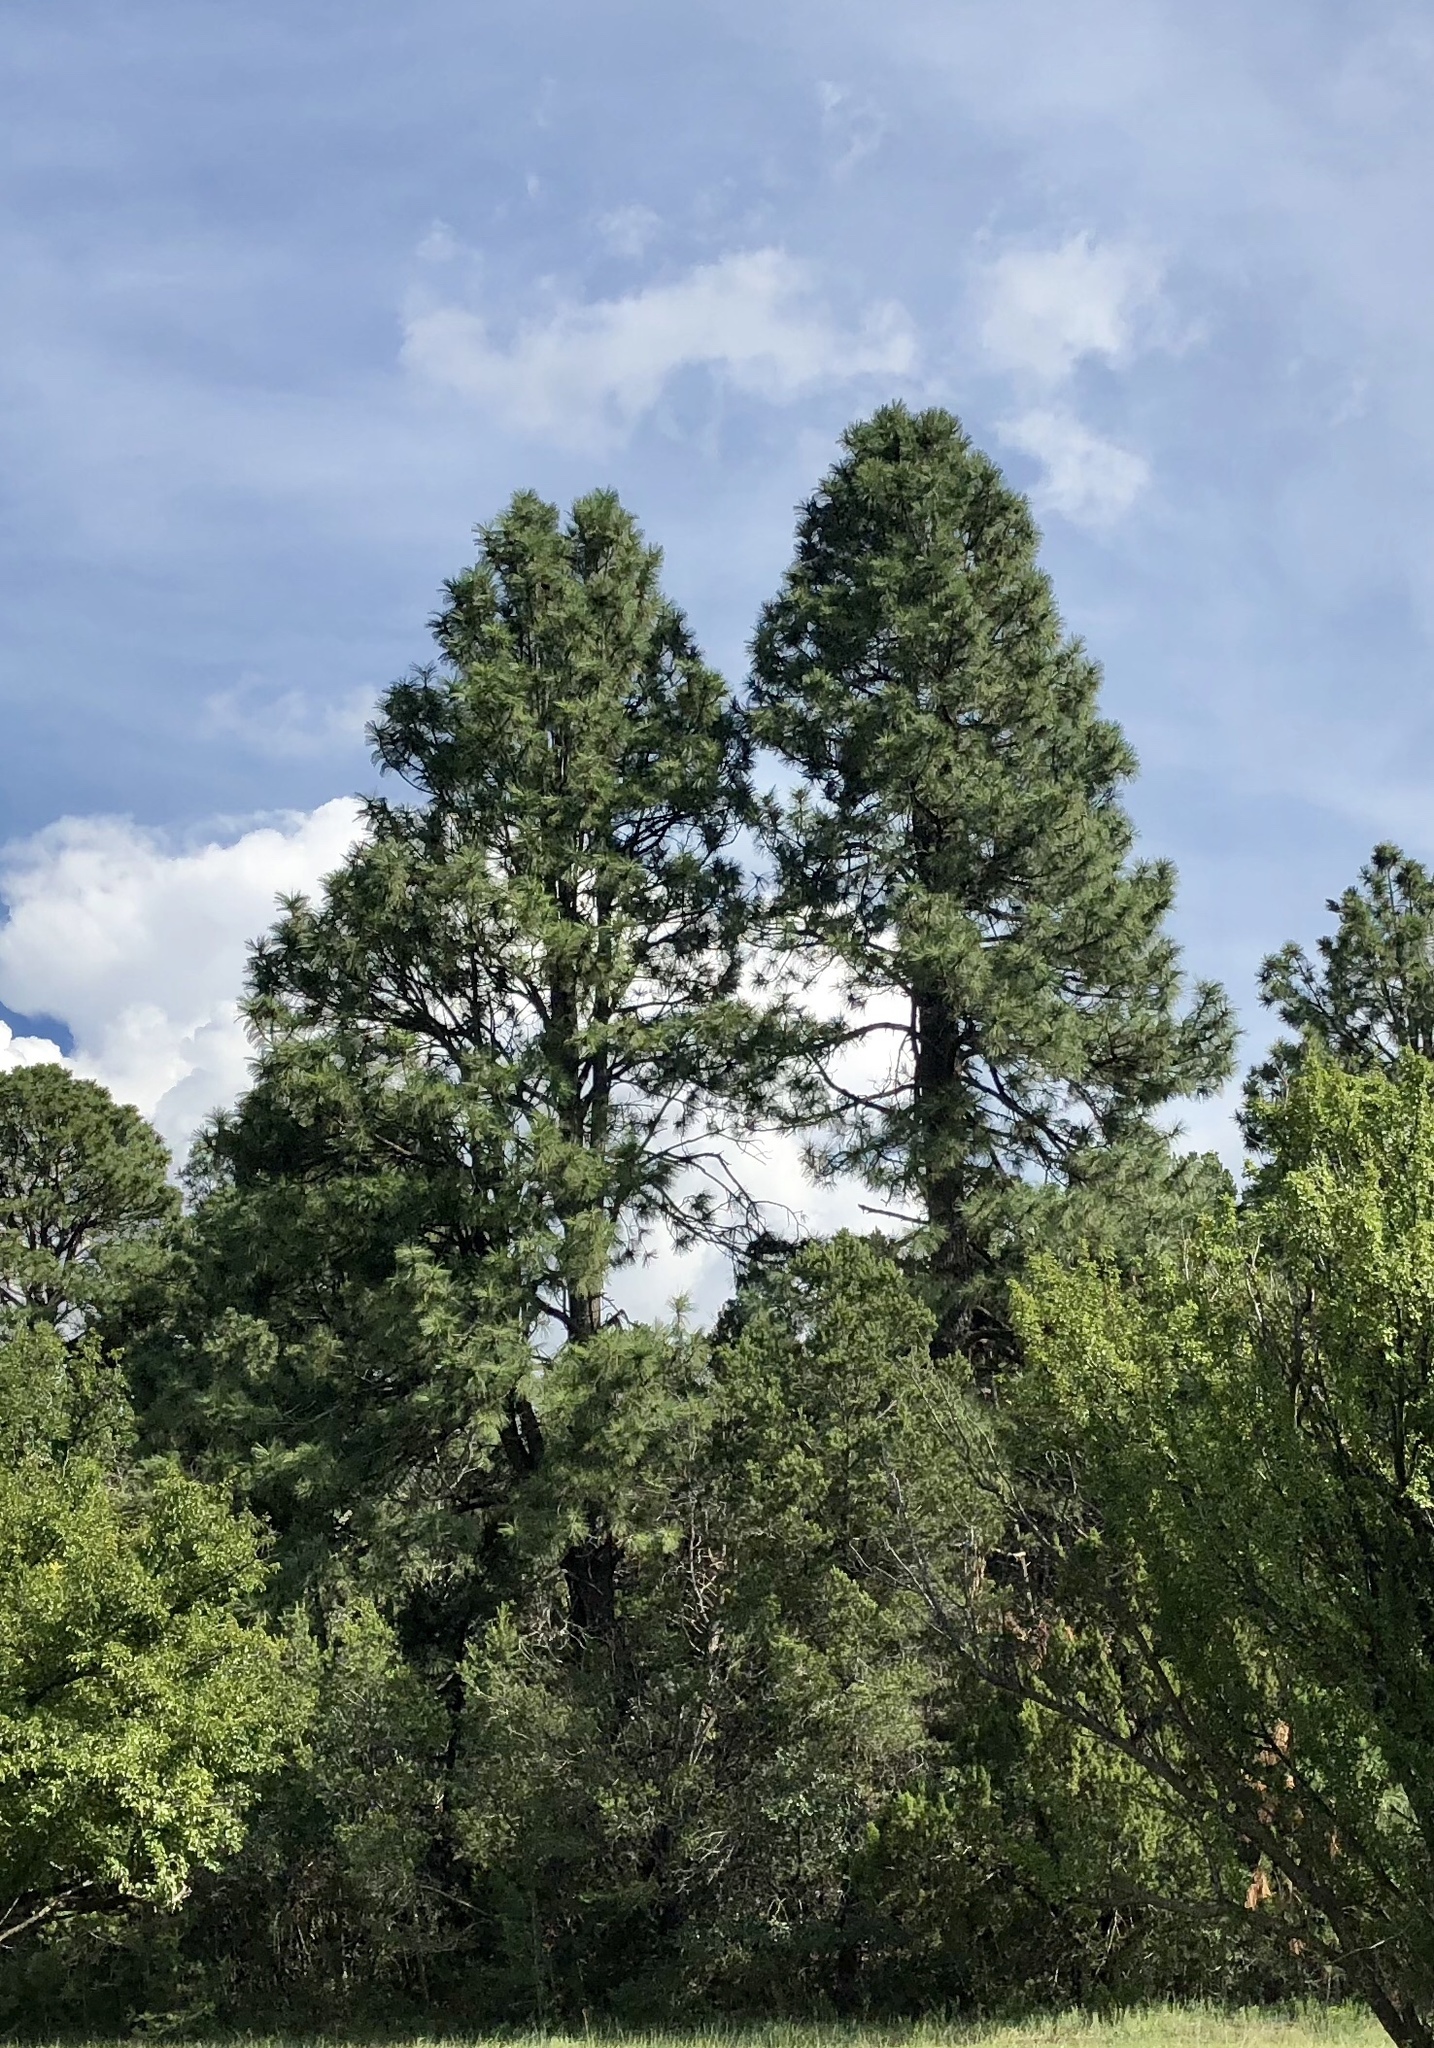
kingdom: Plantae
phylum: Tracheophyta
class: Pinopsida
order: Pinales
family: Pinaceae
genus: Pinus
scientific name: Pinus ponderosa
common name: Western yellow-pine
